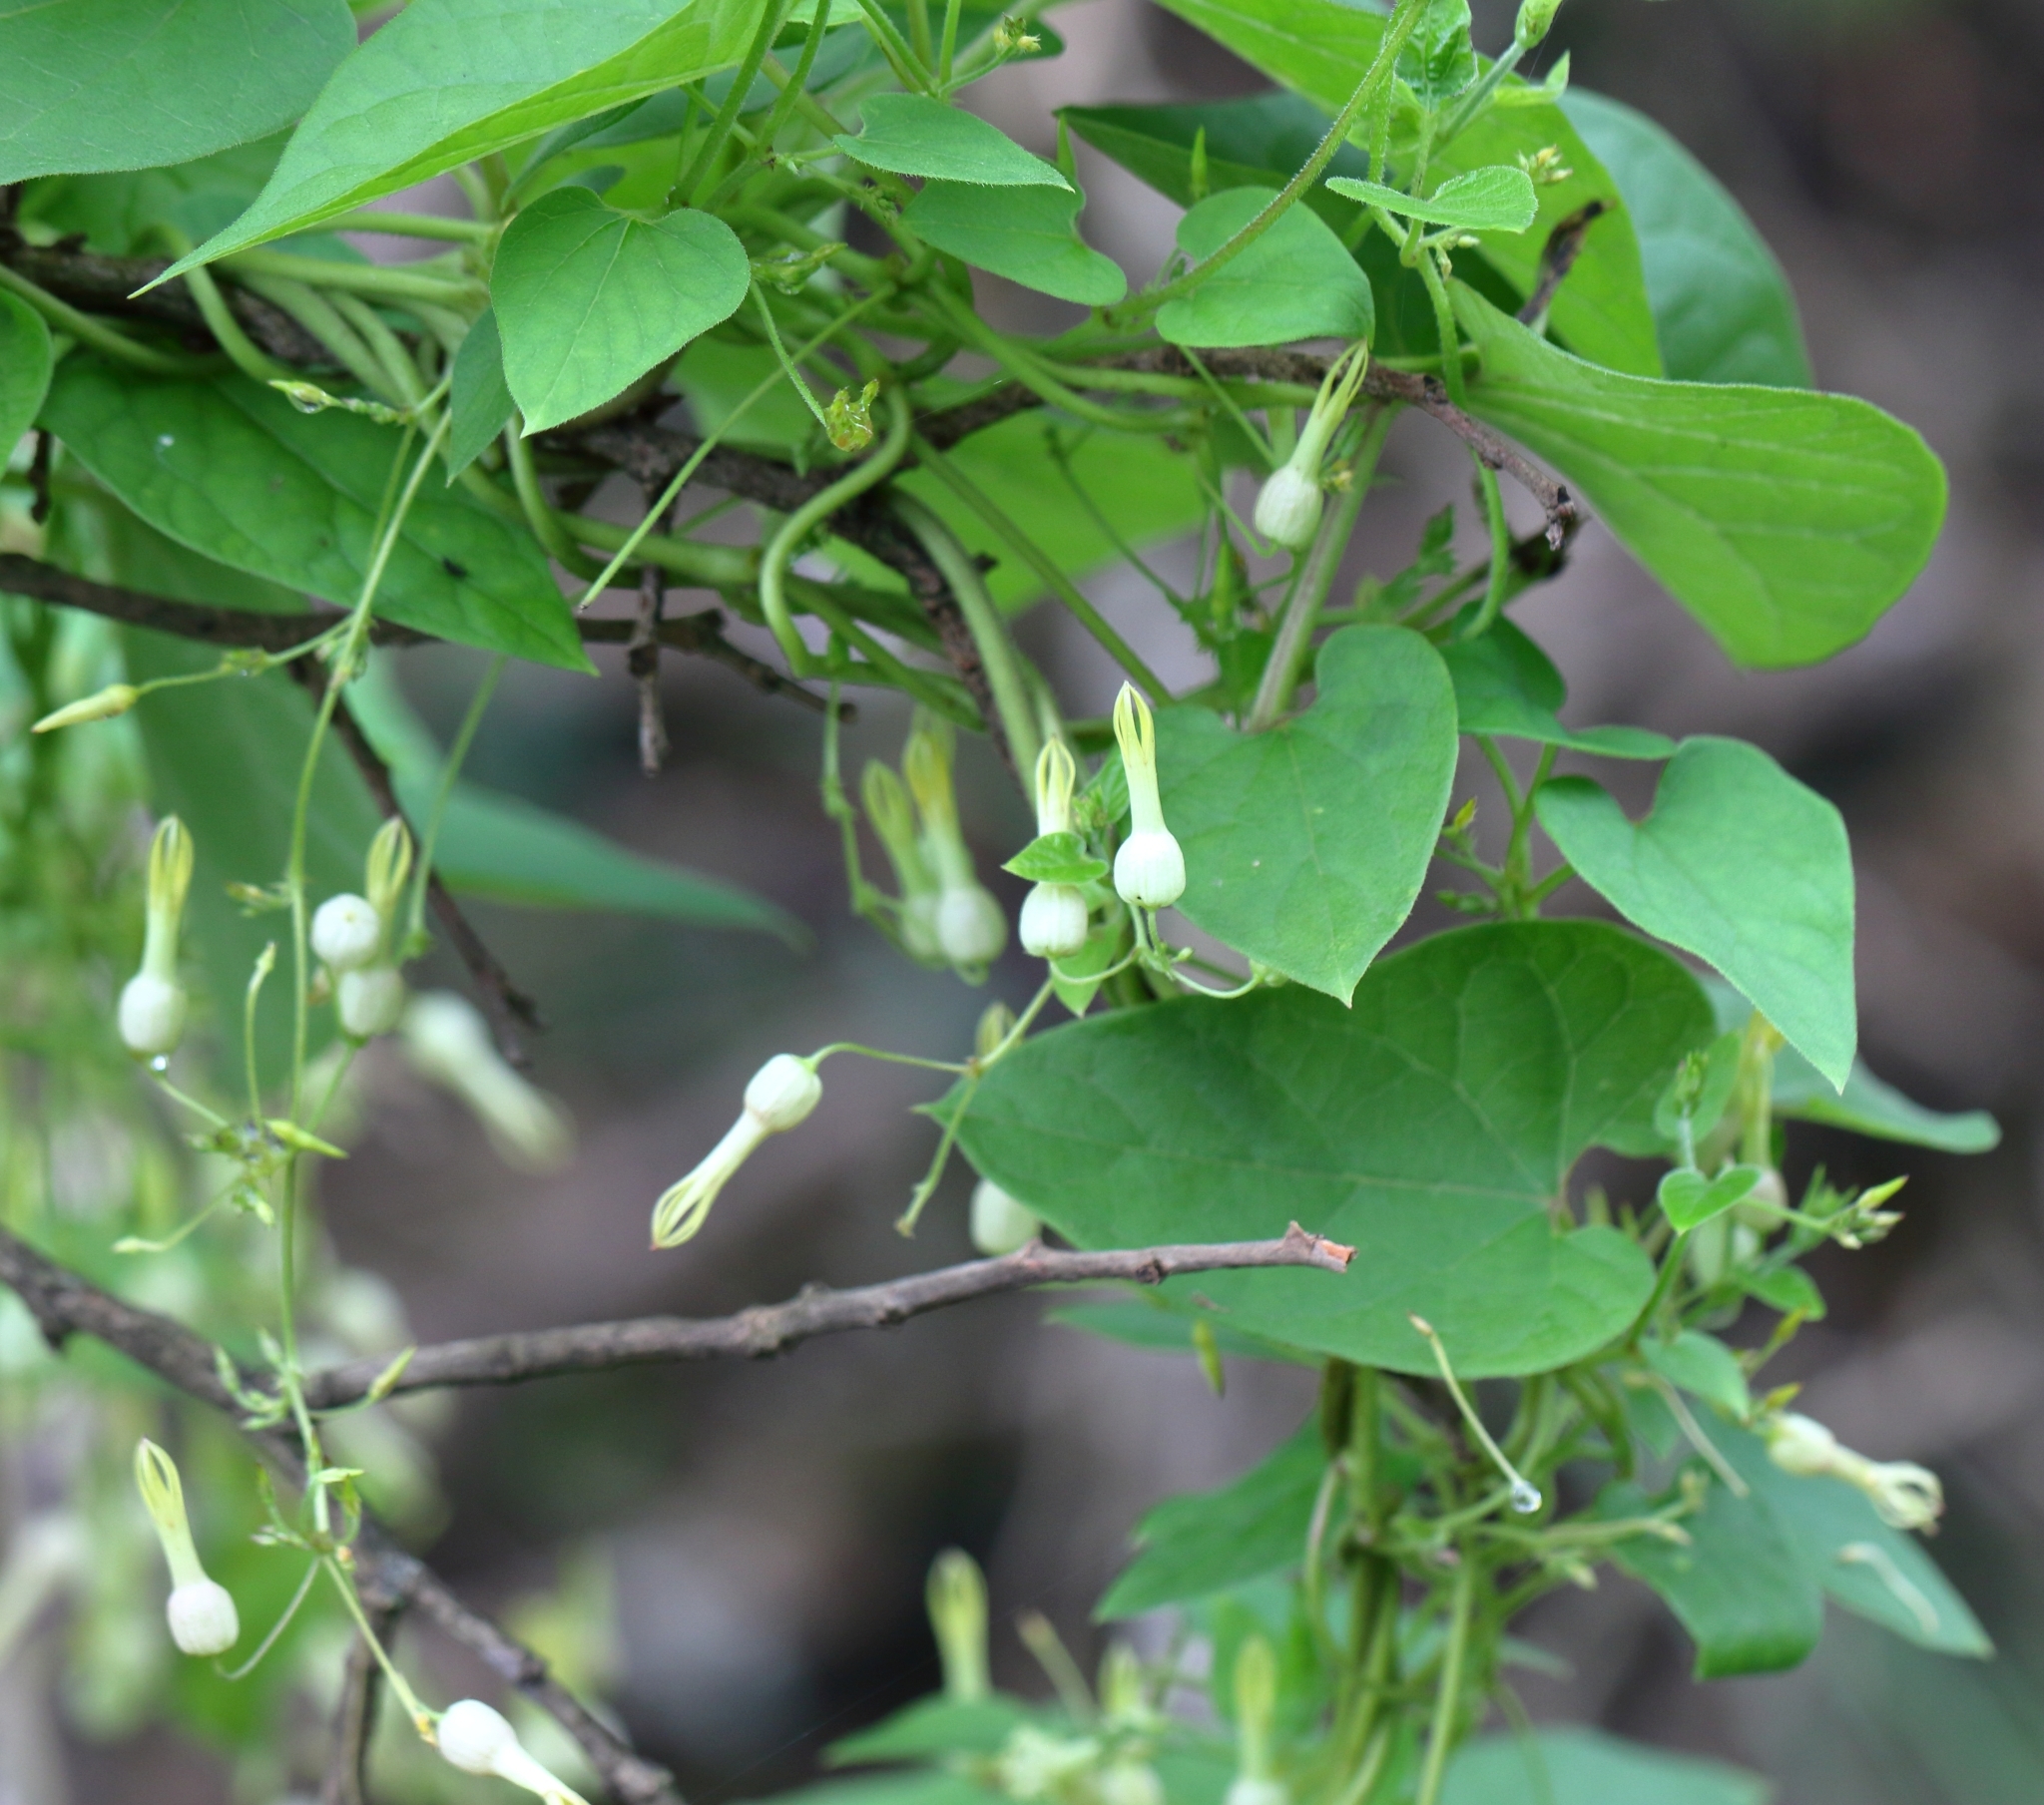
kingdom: Plantae
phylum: Tracheophyta
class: Magnoliopsida
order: Gentianales
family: Apocynaceae
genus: Riocreuxia
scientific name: Riocreuxia torulosa
